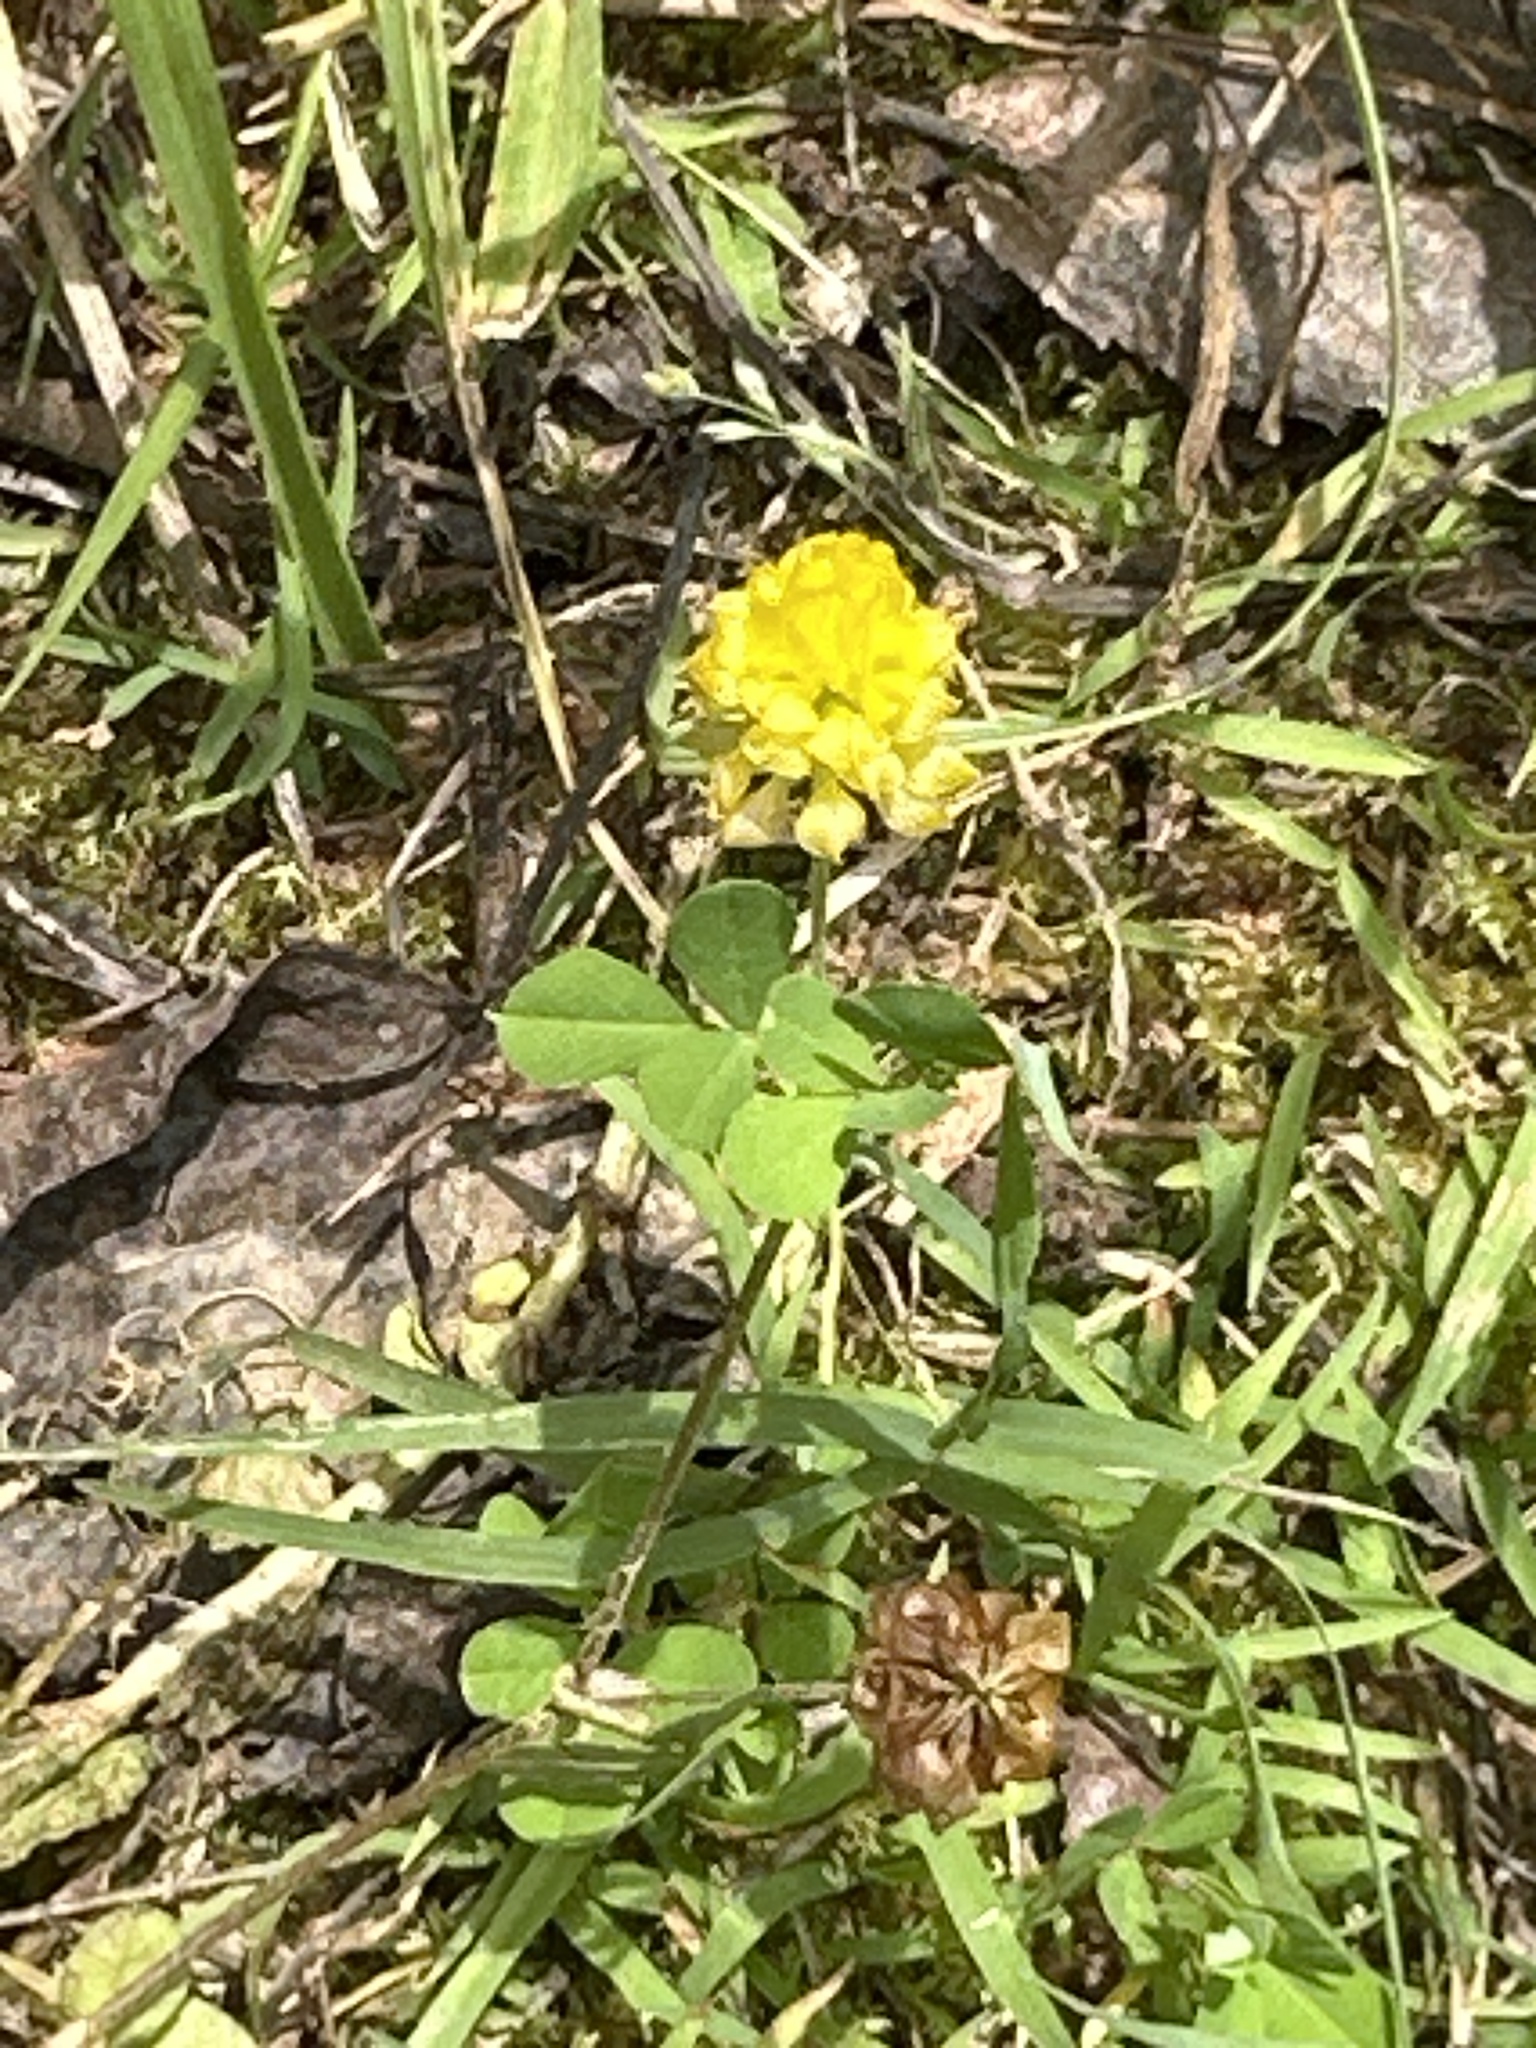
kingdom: Plantae
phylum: Tracheophyta
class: Magnoliopsida
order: Fabales
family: Fabaceae
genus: Trifolium
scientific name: Trifolium campestre
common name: Field clover
